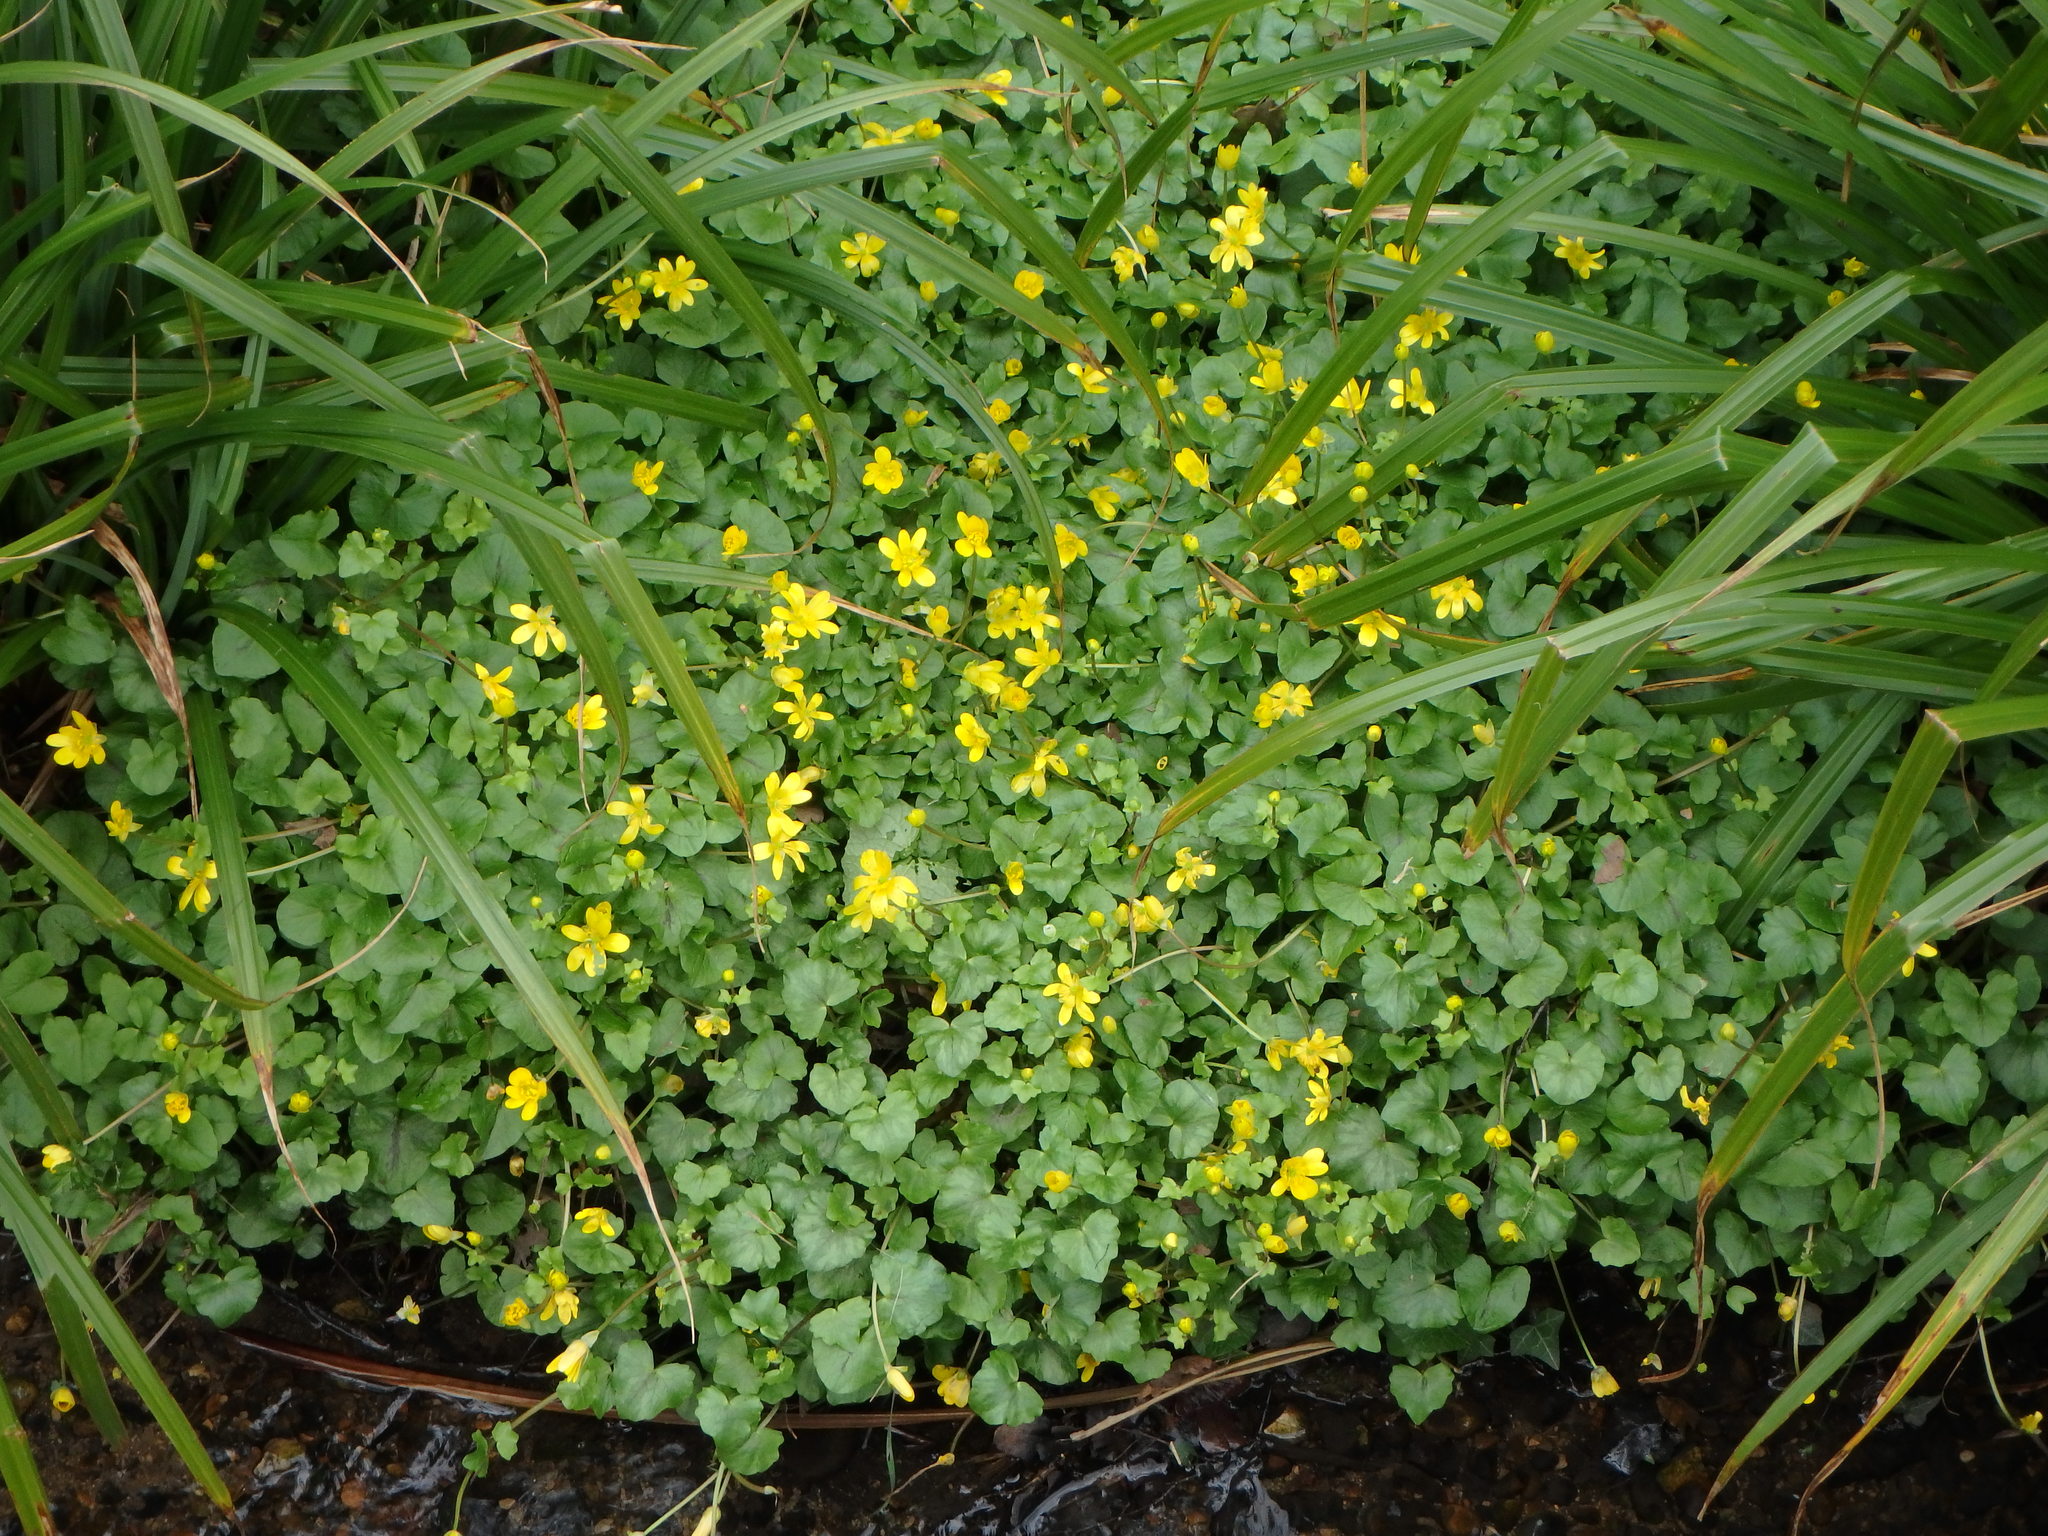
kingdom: Plantae
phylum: Tracheophyta
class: Magnoliopsida
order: Ranunculales
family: Ranunculaceae
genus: Ficaria
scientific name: Ficaria verna
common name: Lesser celandine
